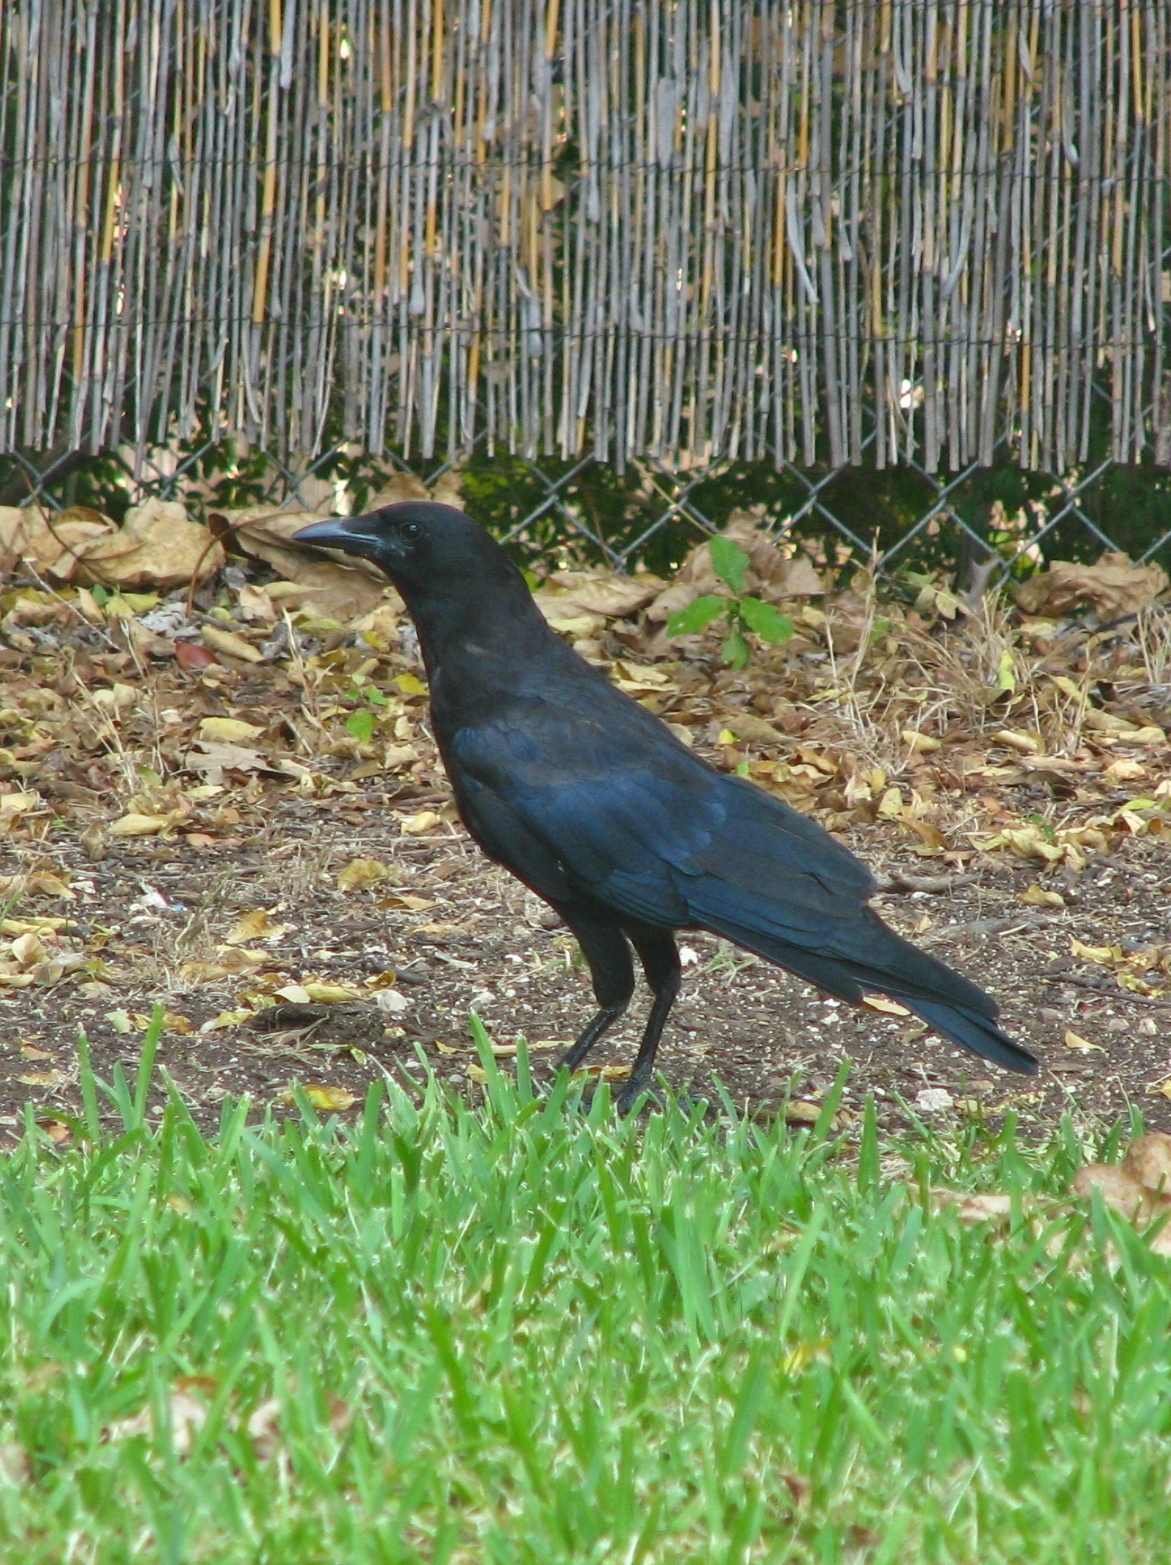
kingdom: Animalia
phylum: Chordata
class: Aves
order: Passeriformes
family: Corvidae
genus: Corvus
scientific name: Corvus brachyrhynchos
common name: American crow
